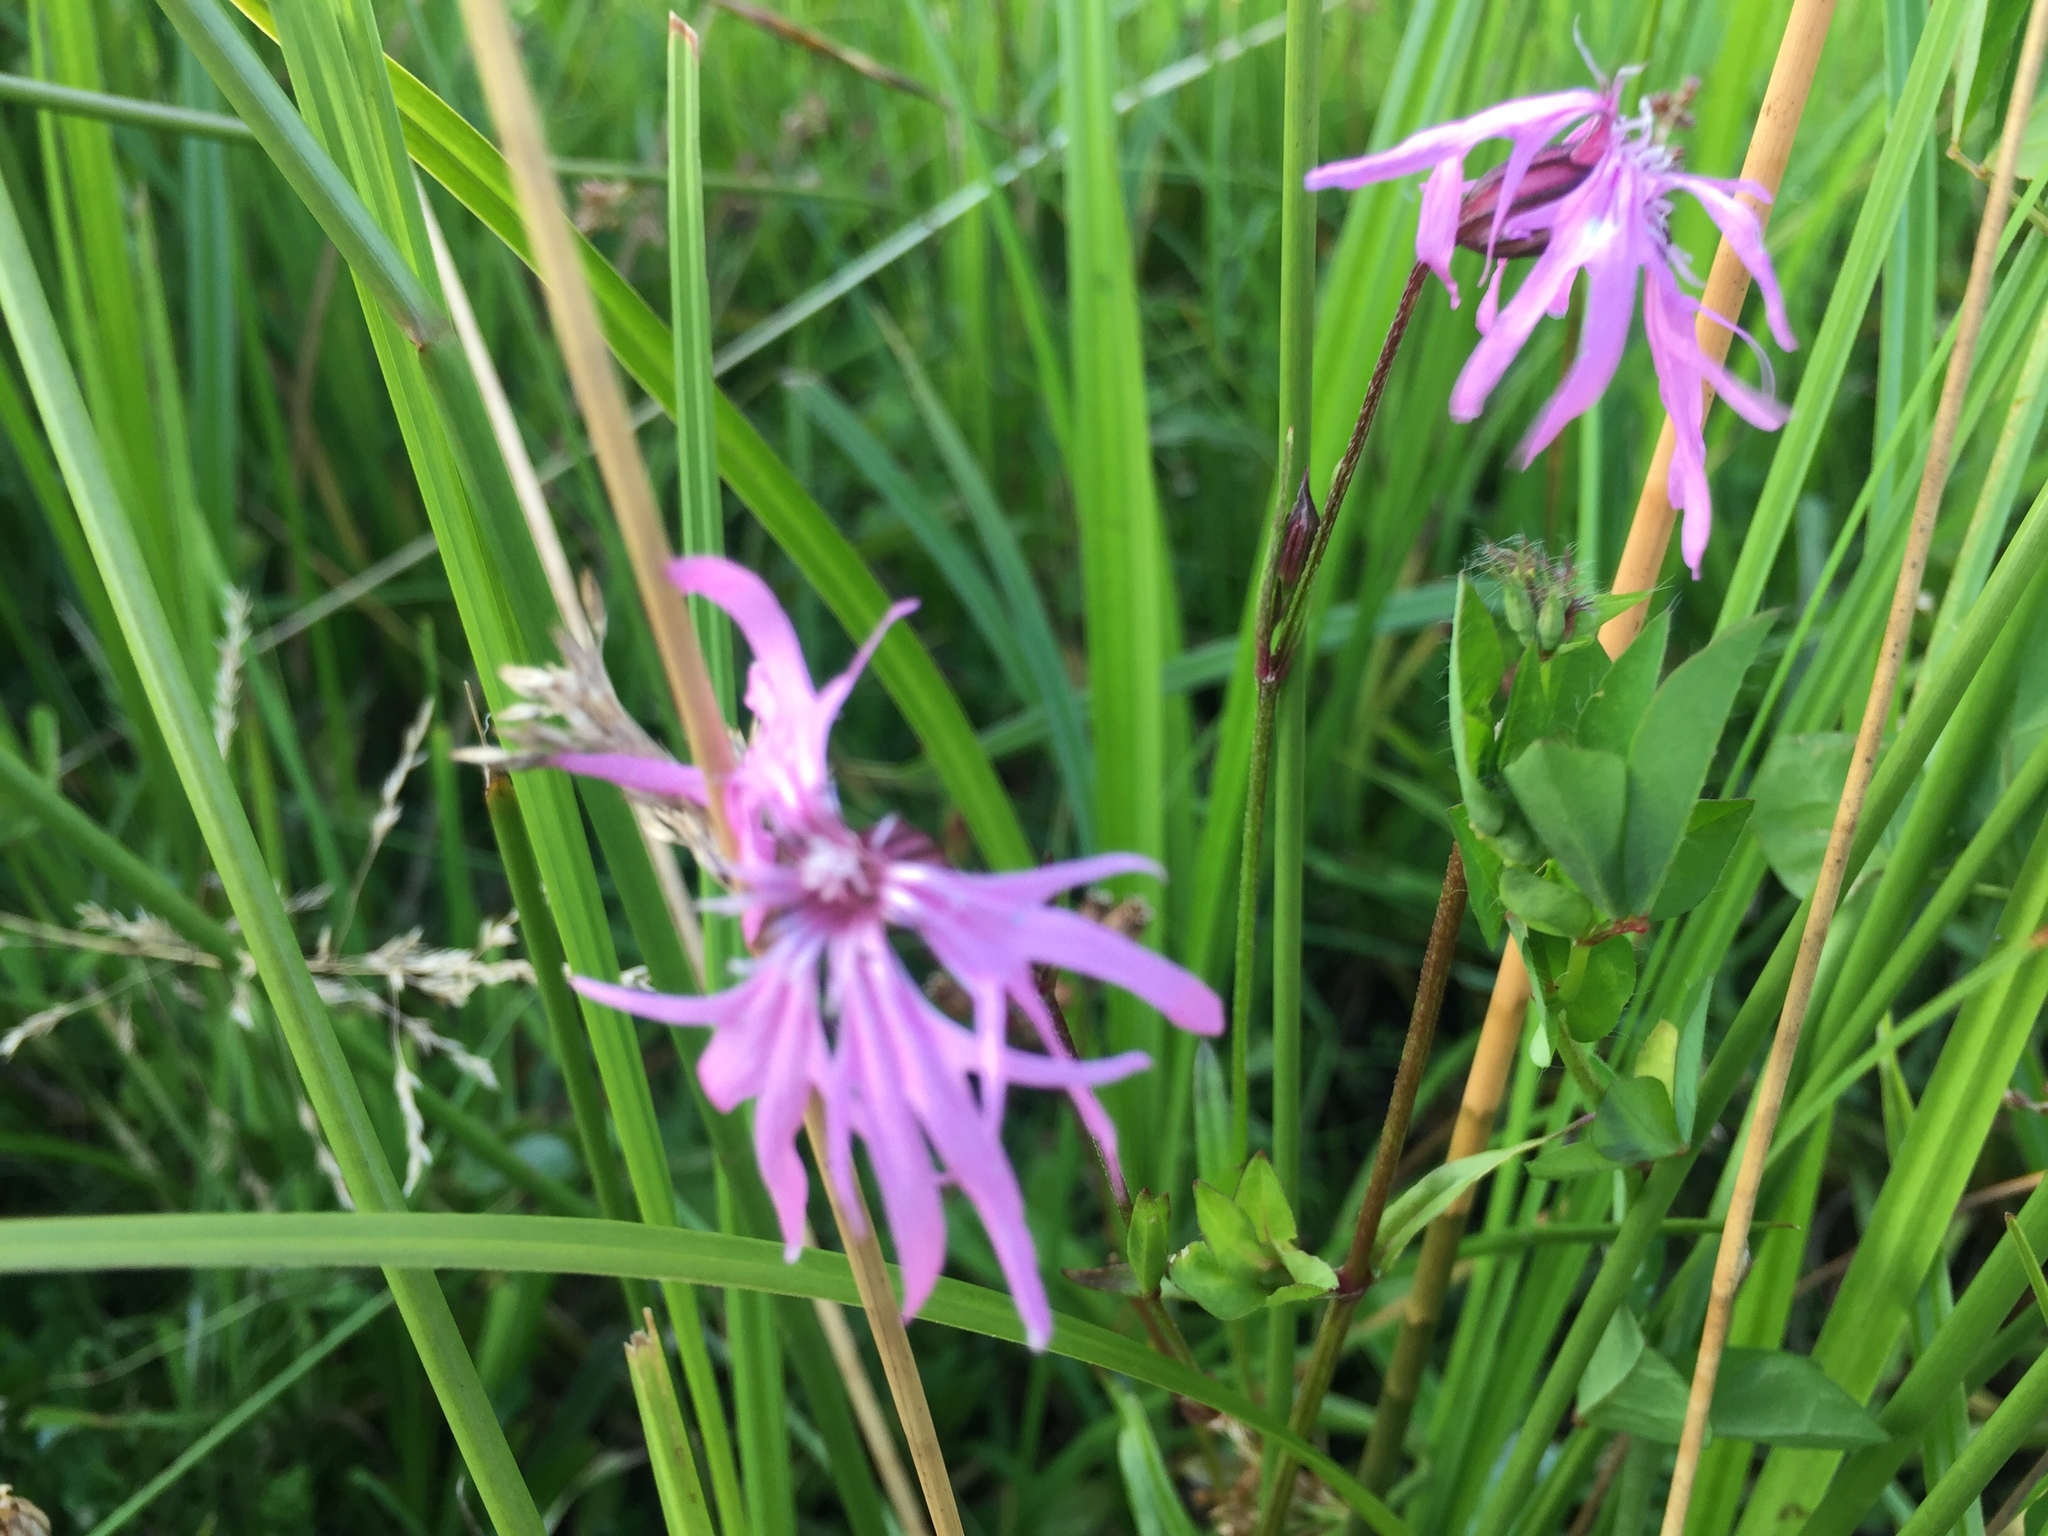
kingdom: Plantae
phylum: Tracheophyta
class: Magnoliopsida
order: Caryophyllales
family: Caryophyllaceae
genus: Silene
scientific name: Silene flos-cuculi
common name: Ragged-robin
